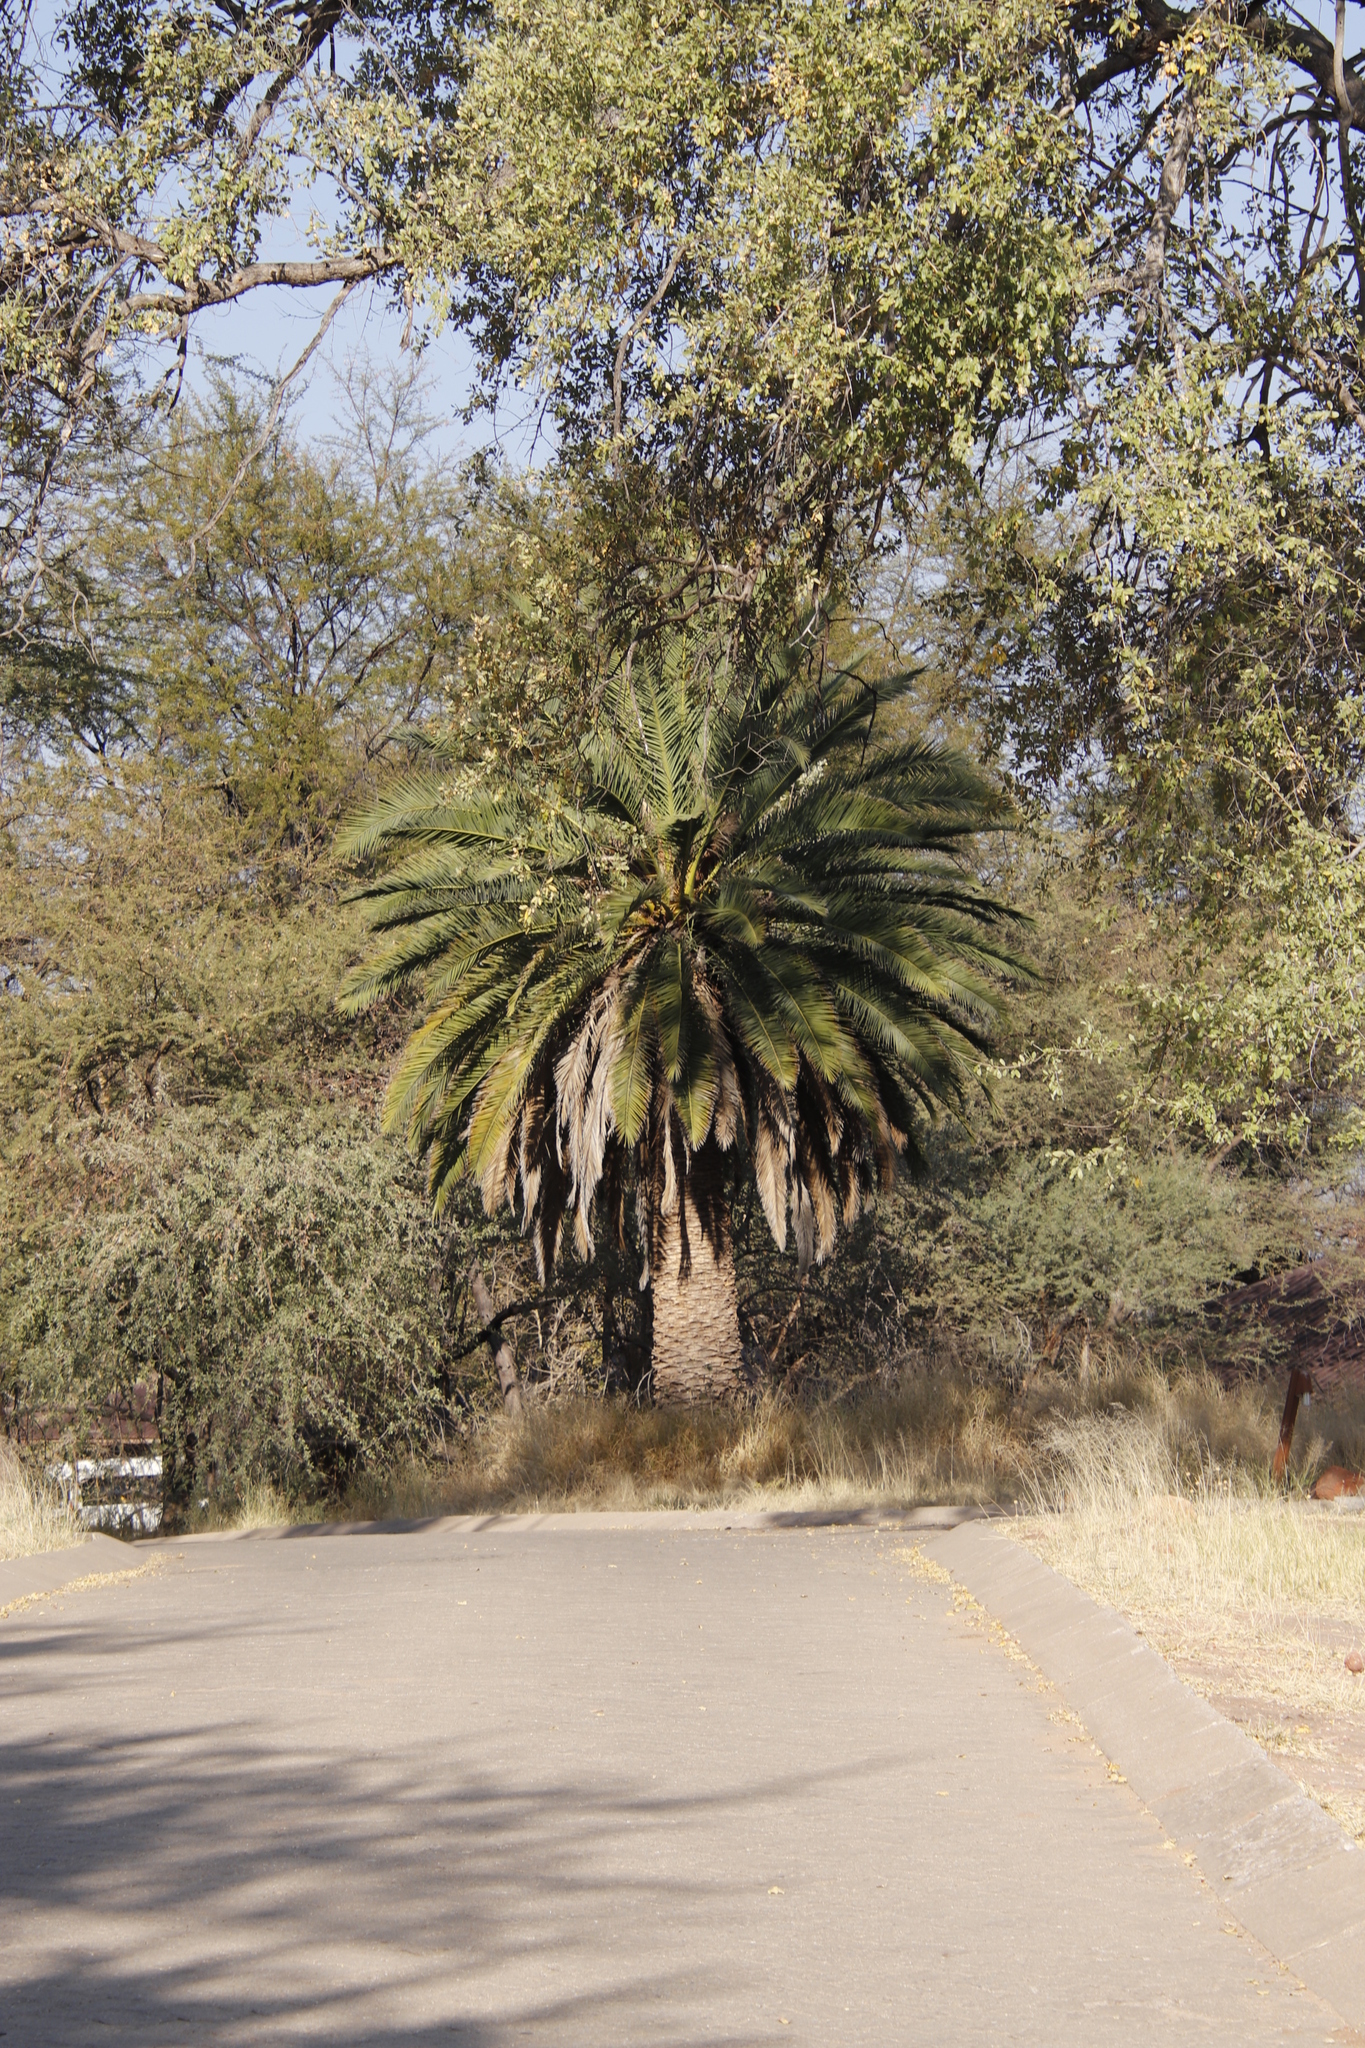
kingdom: Plantae
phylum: Tracheophyta
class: Liliopsida
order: Arecales
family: Arecaceae
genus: Phoenix
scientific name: Phoenix canariensis
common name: Canary island date palm
